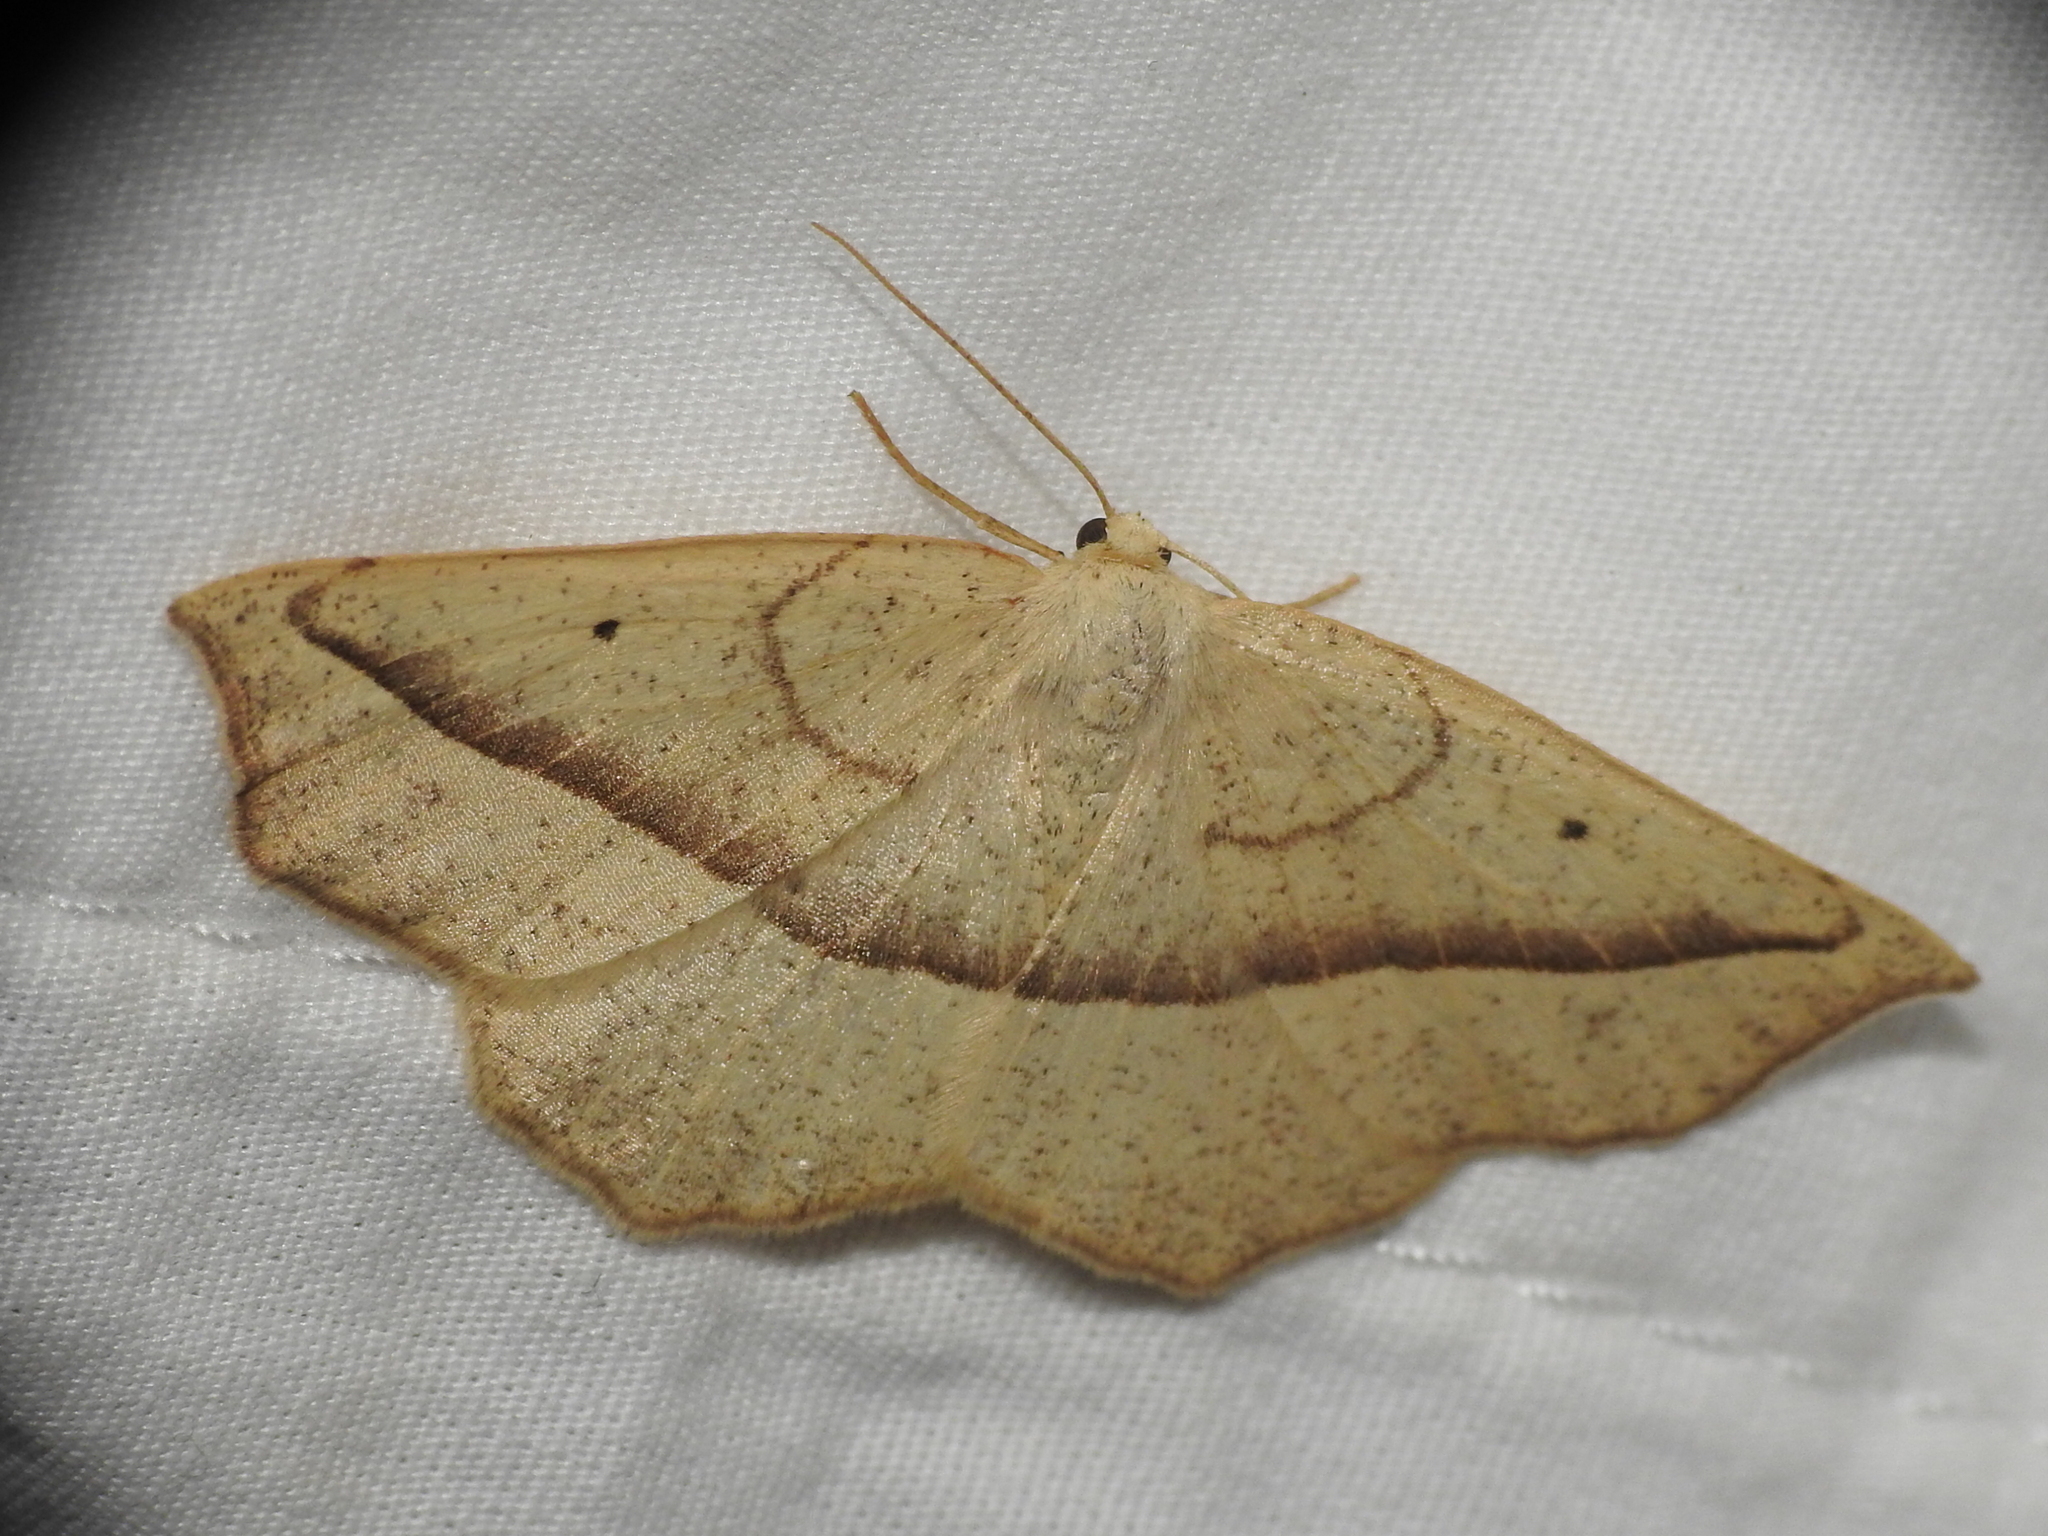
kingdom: Animalia
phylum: Arthropoda
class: Insecta
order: Lepidoptera
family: Geometridae
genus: Eusarca
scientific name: Eusarca confusaria
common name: Confused eusarca
